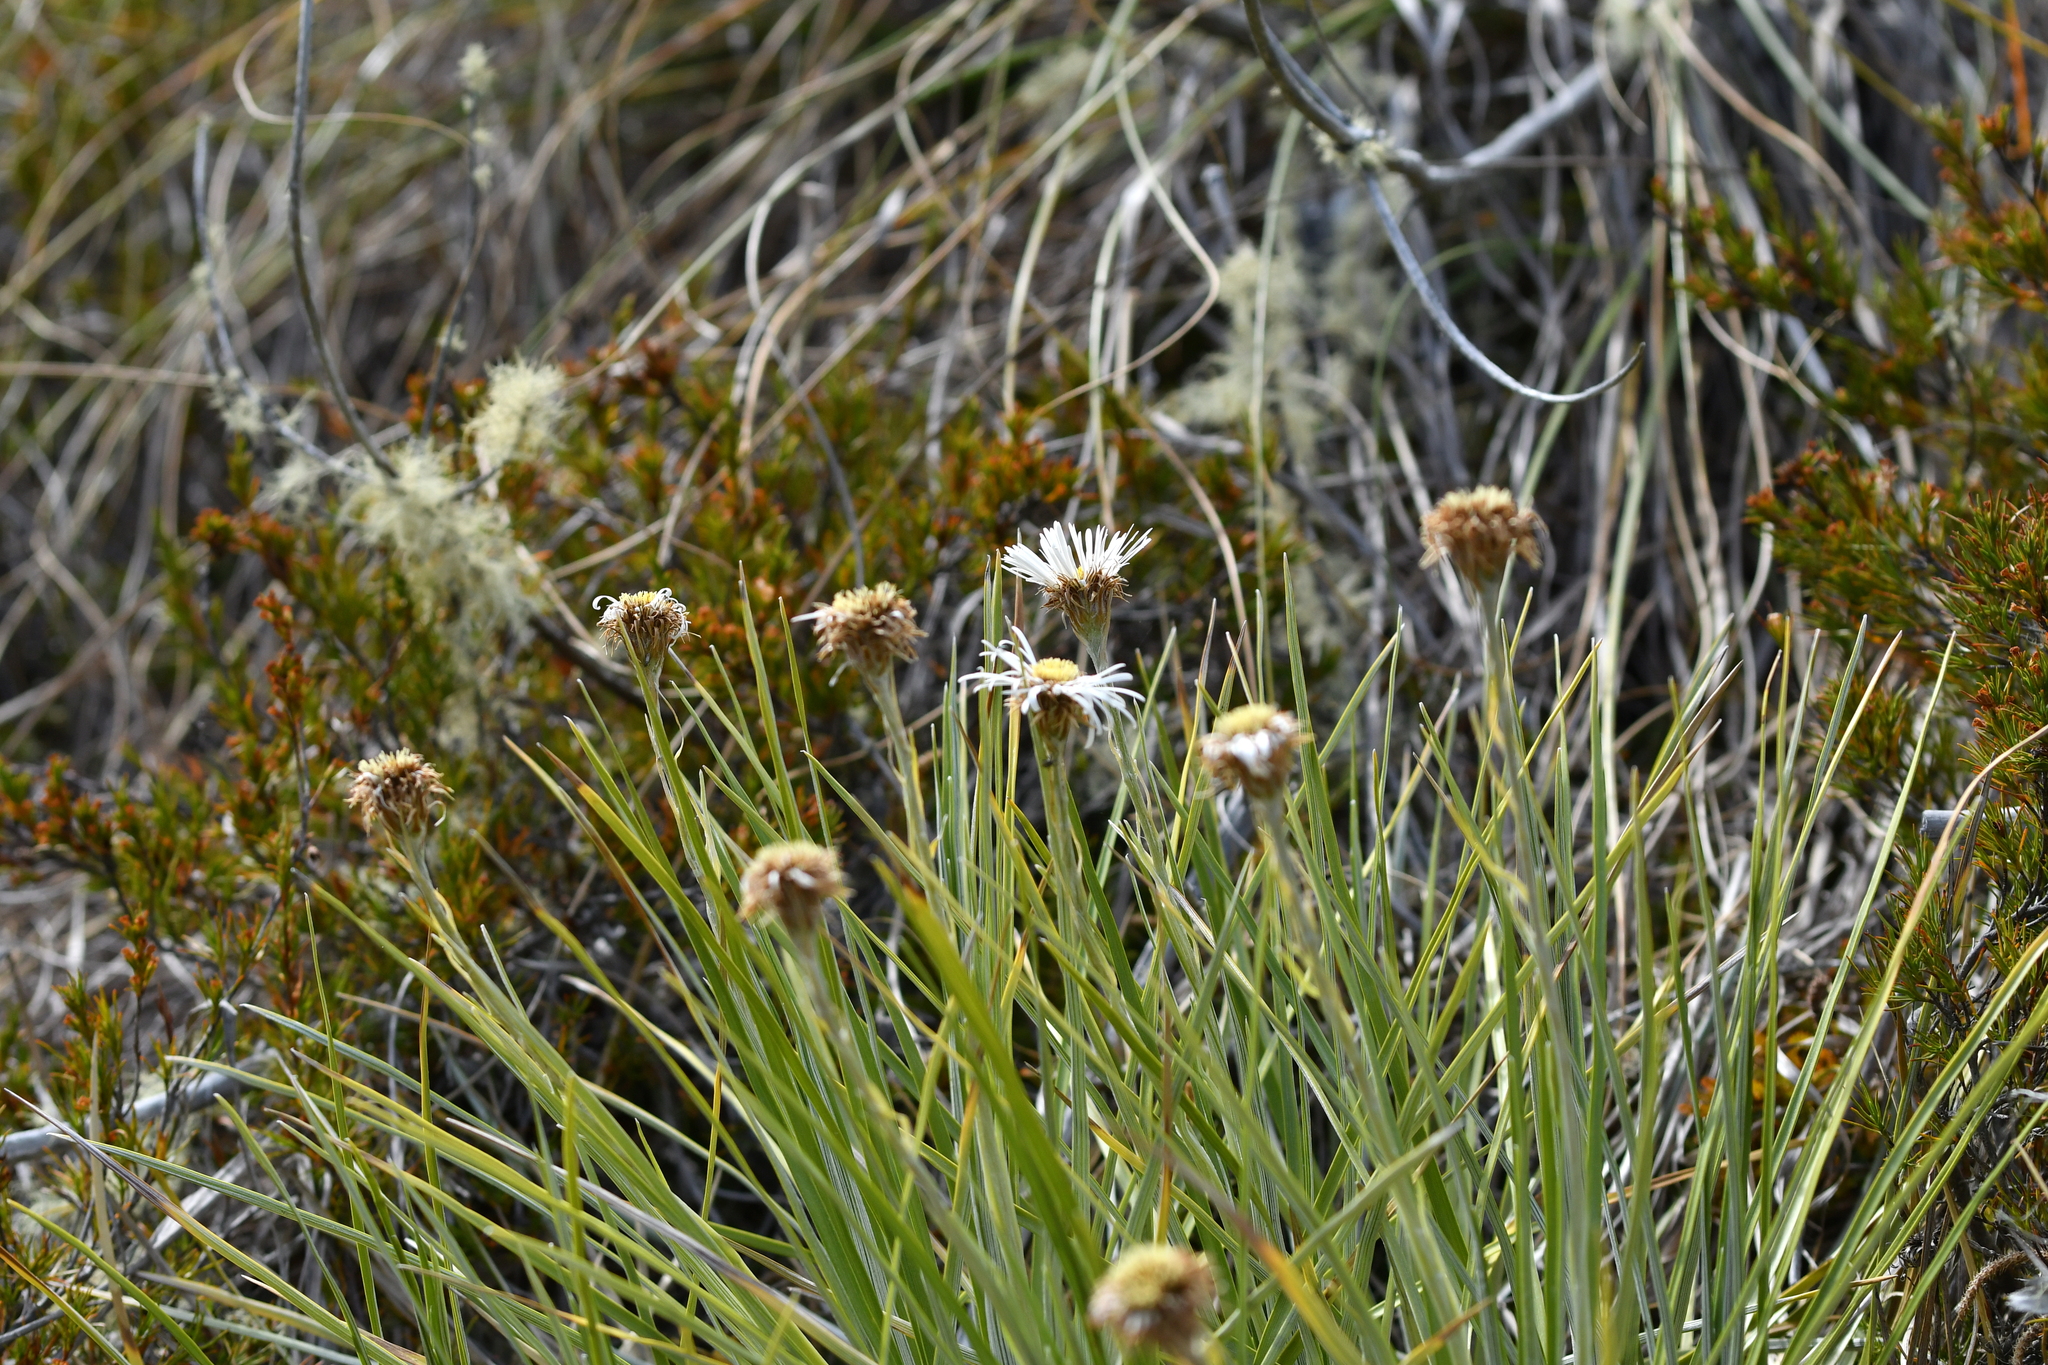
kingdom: Plantae
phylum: Tracheophyta
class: Magnoliopsida
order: Asterales
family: Asteraceae
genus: Celmisia
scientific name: Celmisia lyallii
